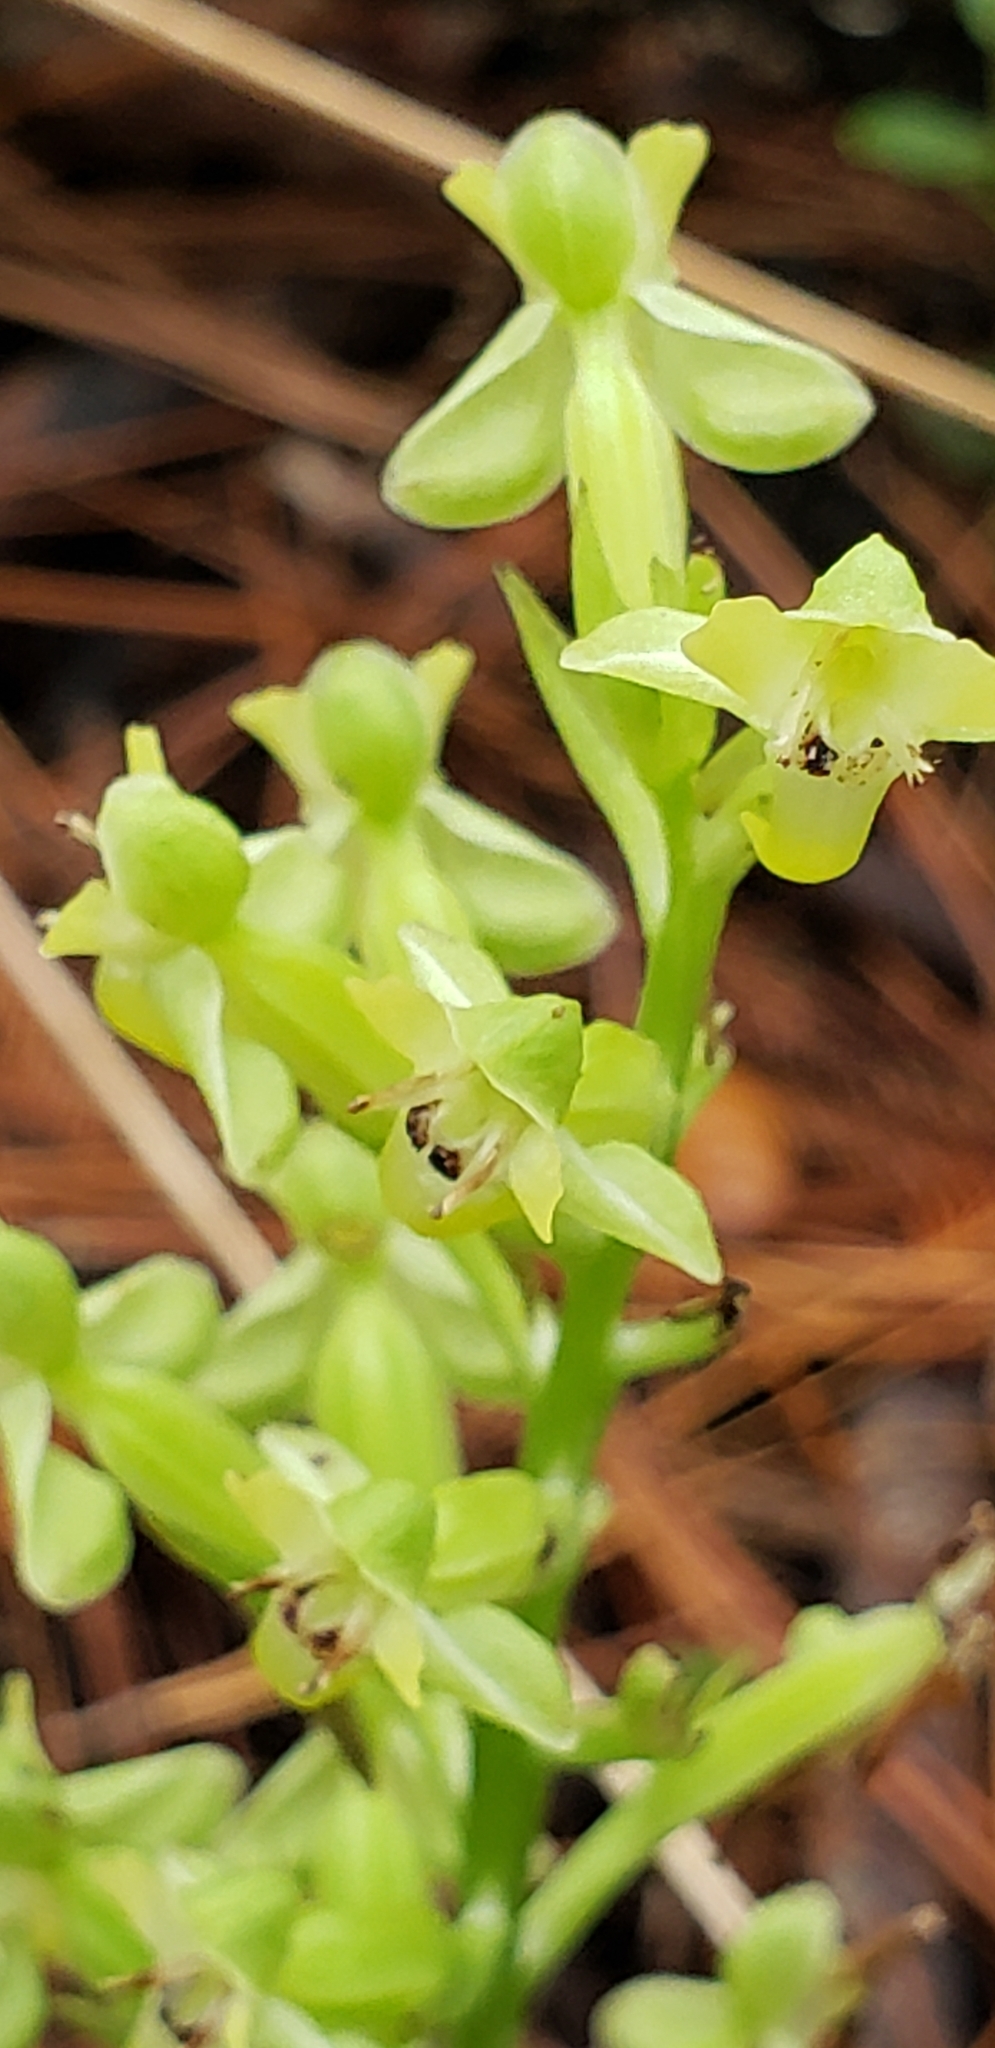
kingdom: Plantae
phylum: Tracheophyta
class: Liliopsida
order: Asparagales
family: Orchidaceae
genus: Habenaria
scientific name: Habenaria floribunda
